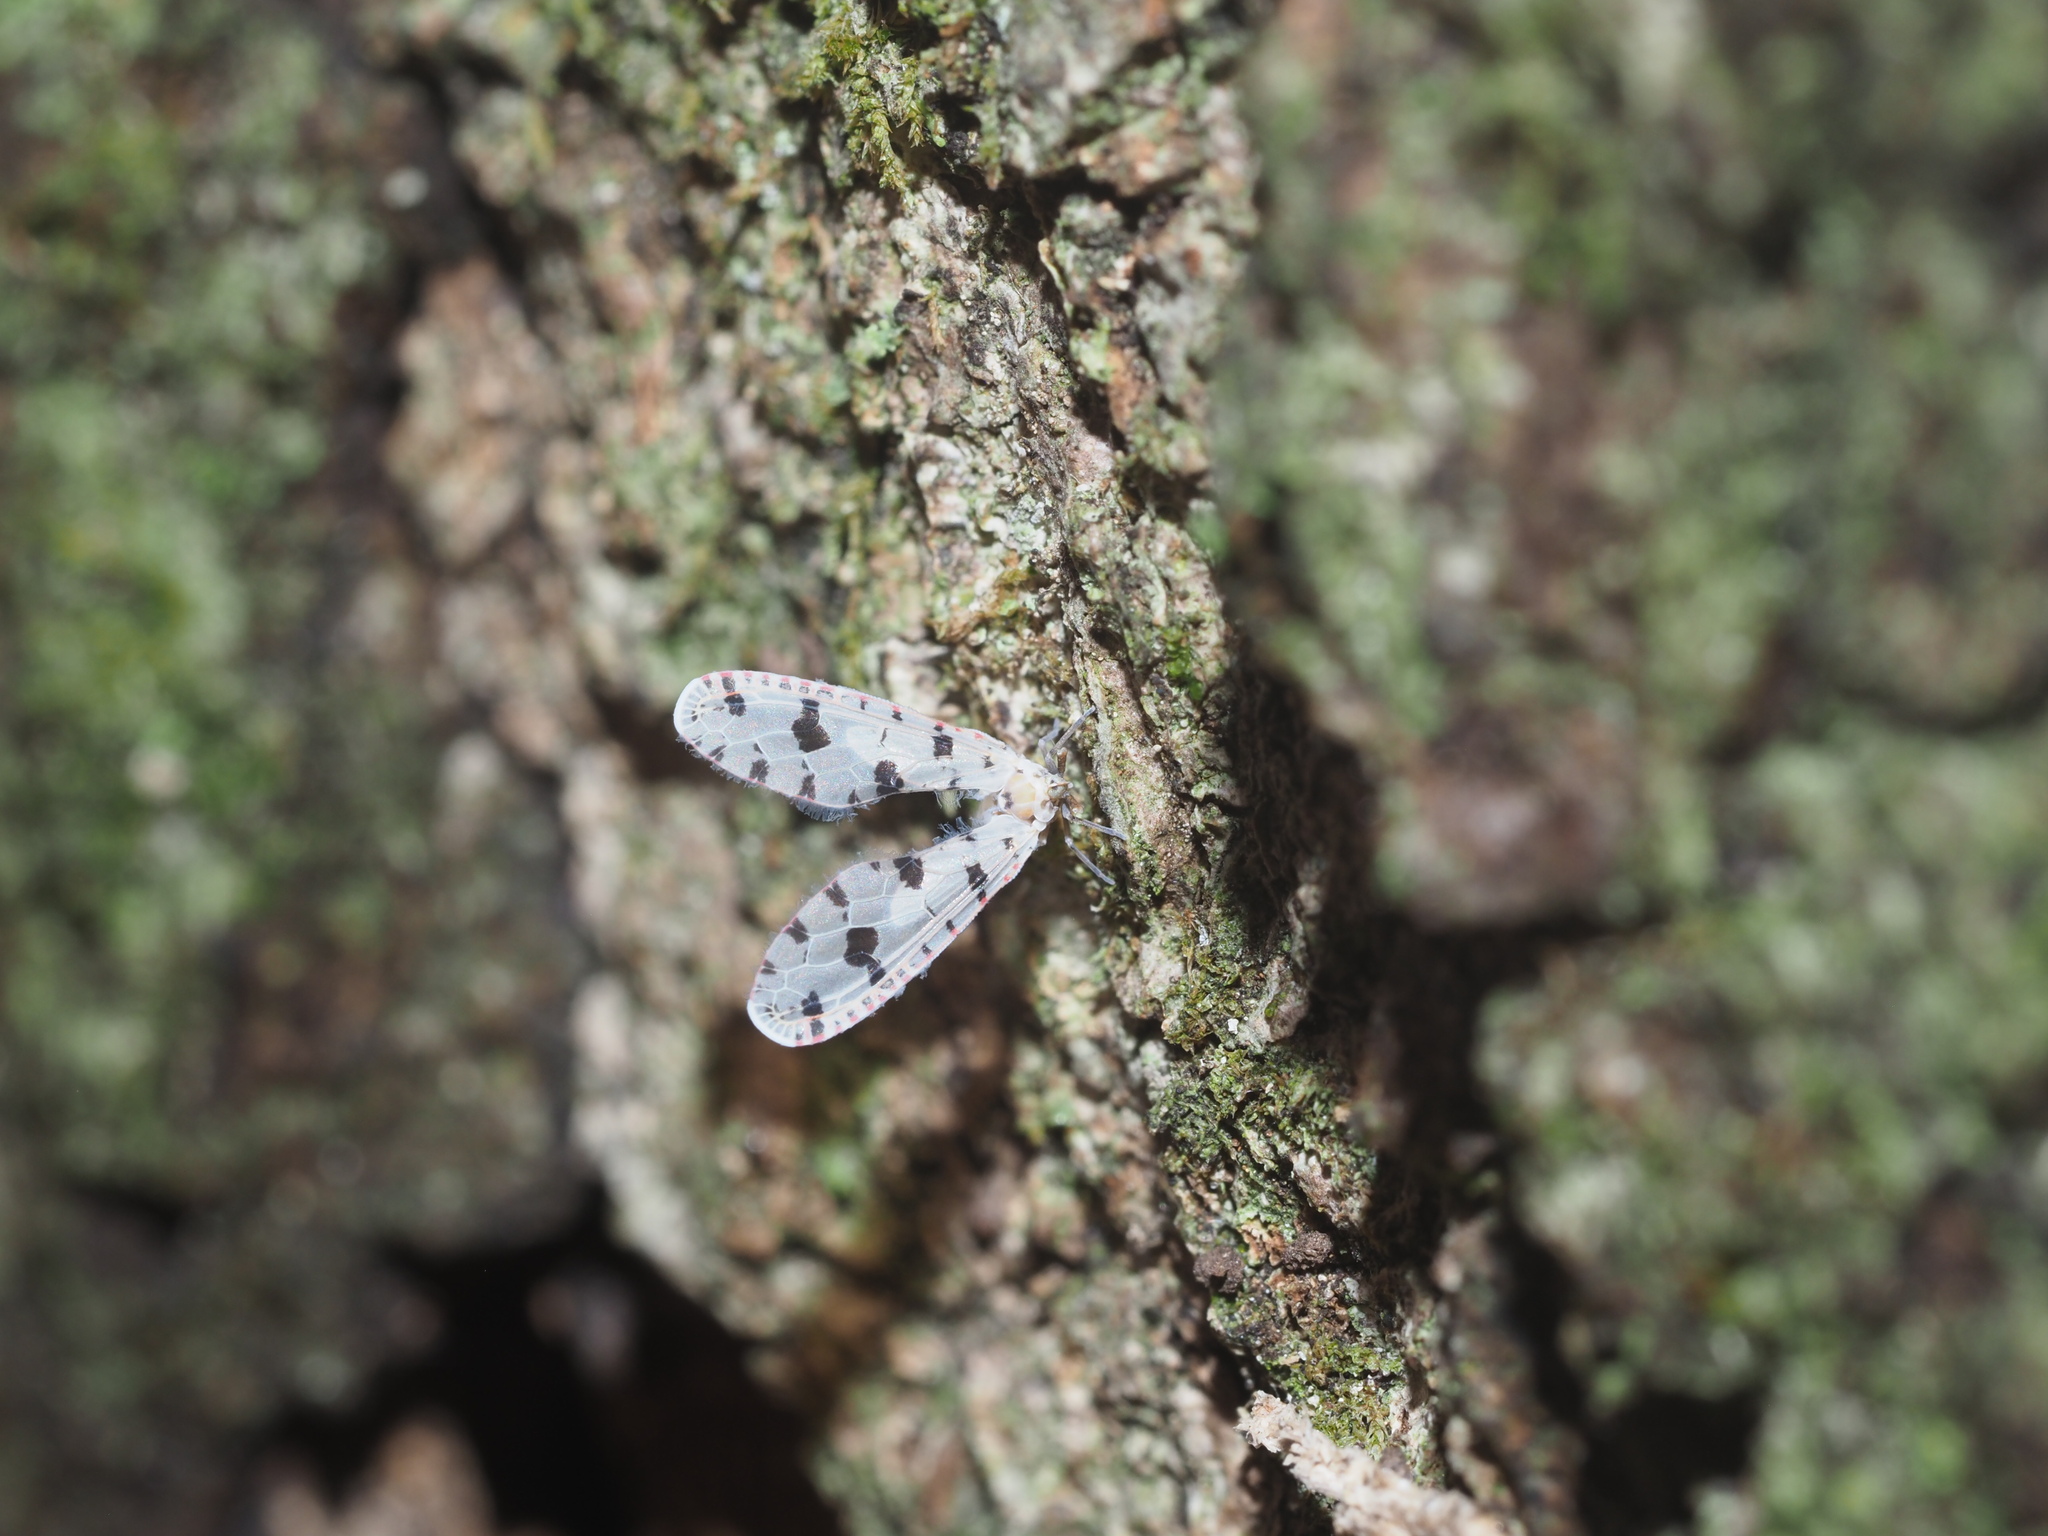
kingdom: Animalia
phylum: Arthropoda
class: Insecta
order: Hemiptera
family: Derbidae
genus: Sikaiana
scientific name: Sikaiana harti
